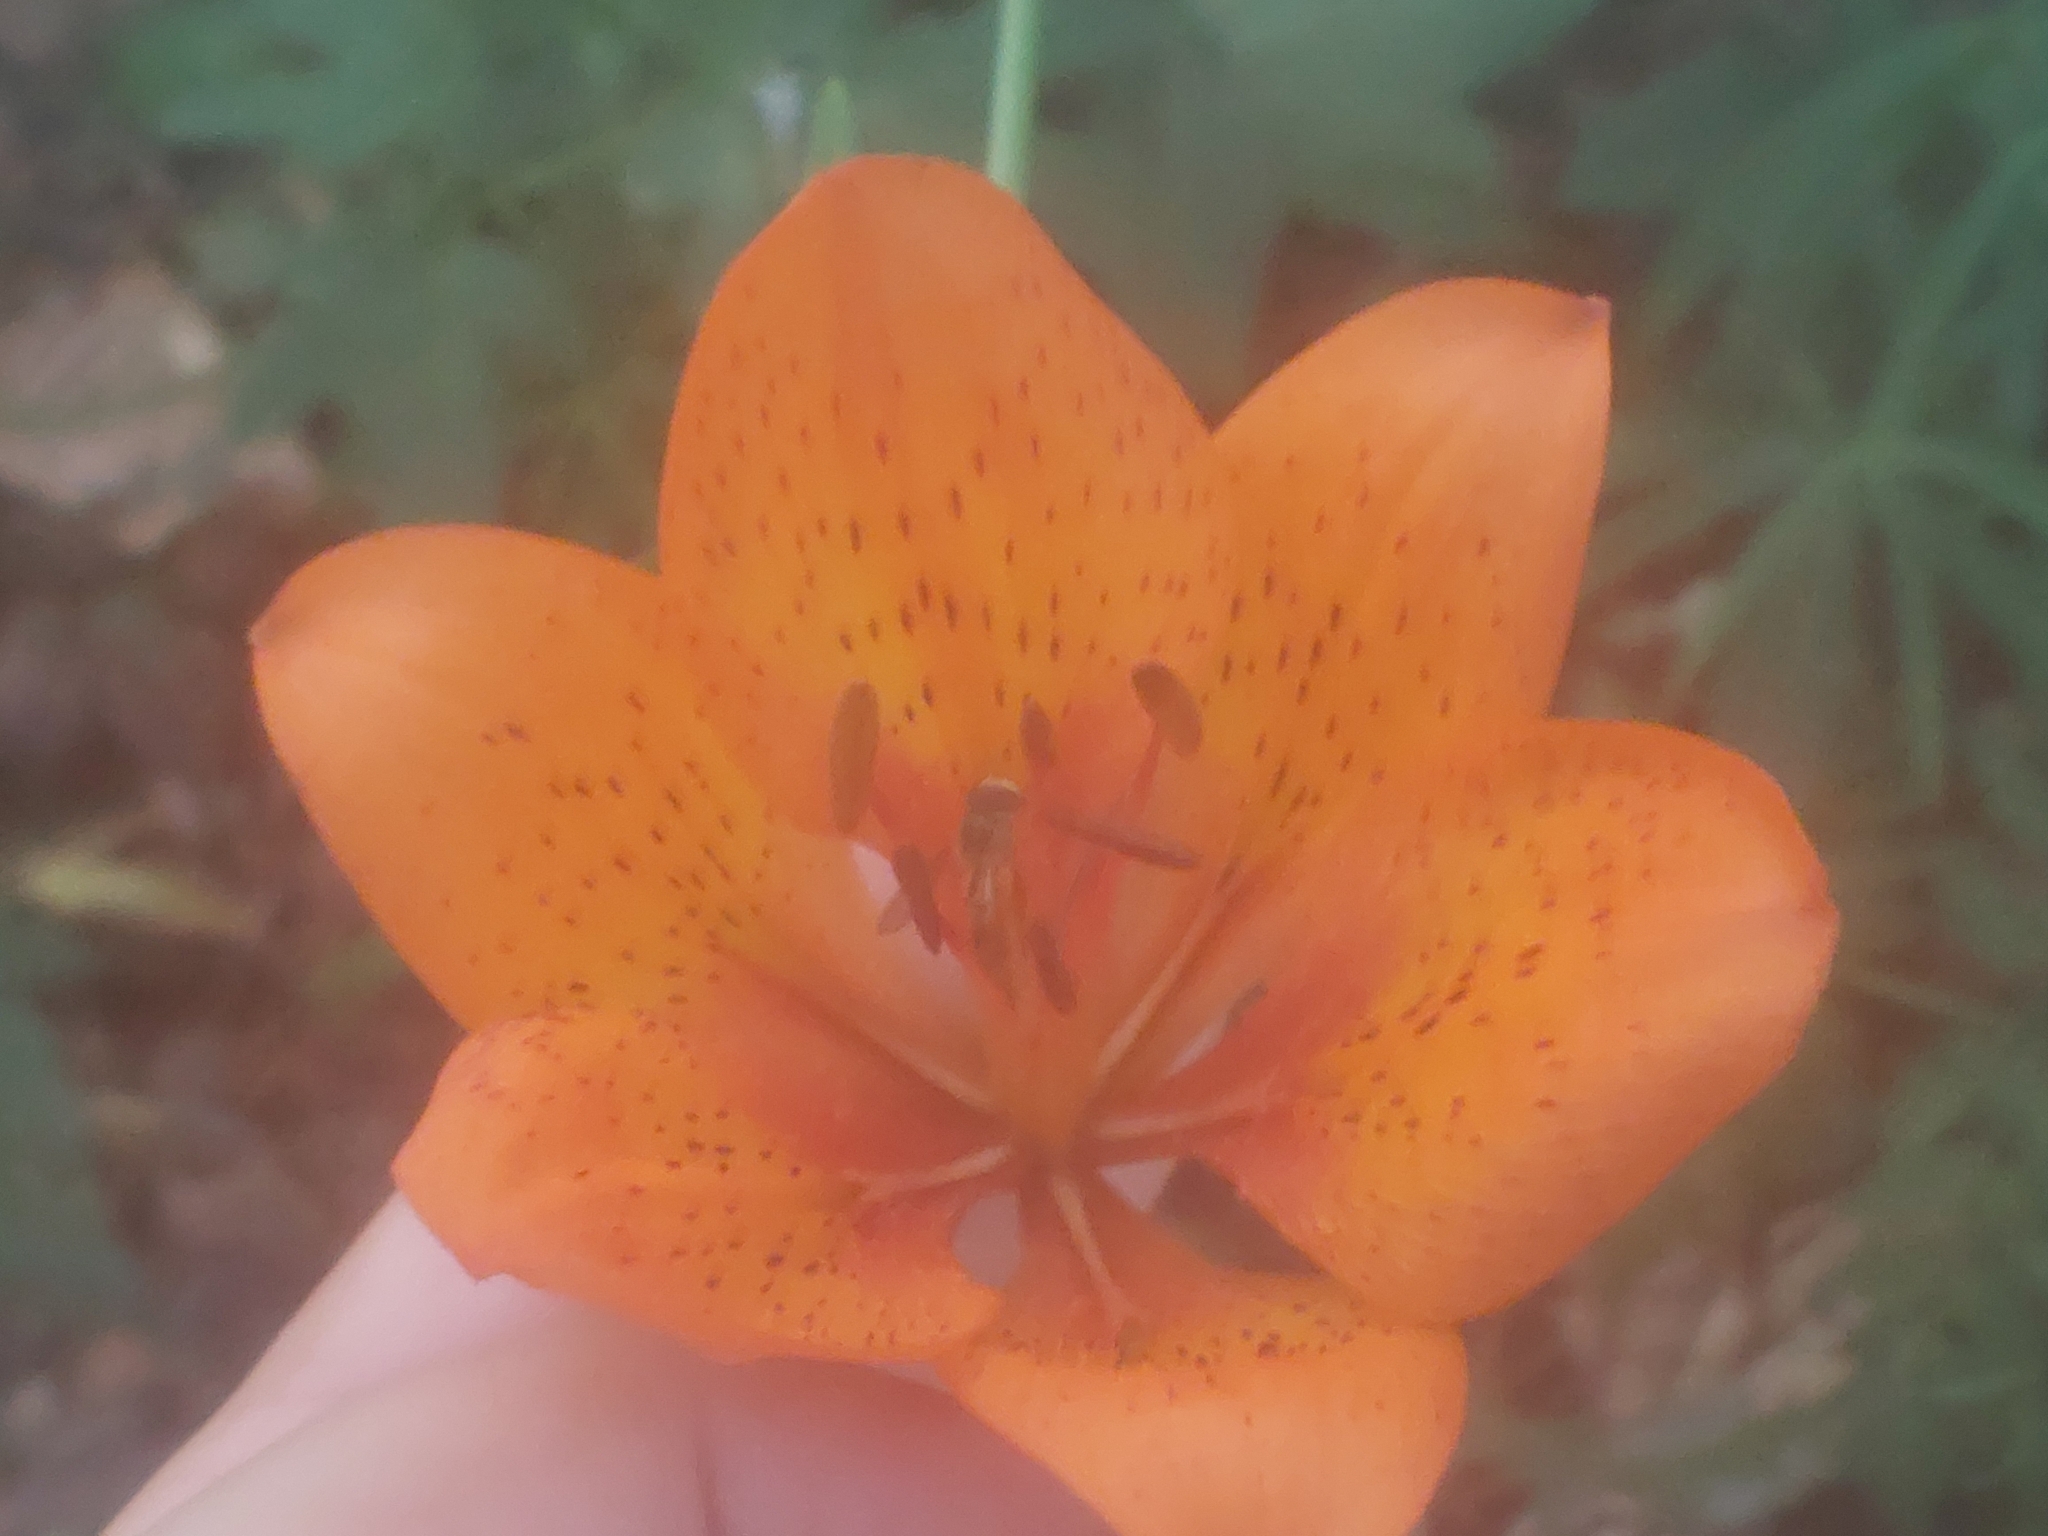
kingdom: Plantae
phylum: Tracheophyta
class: Liliopsida
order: Liliales
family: Liliaceae
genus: Lilium
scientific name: Lilium bulbiferum
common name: Orange lily
